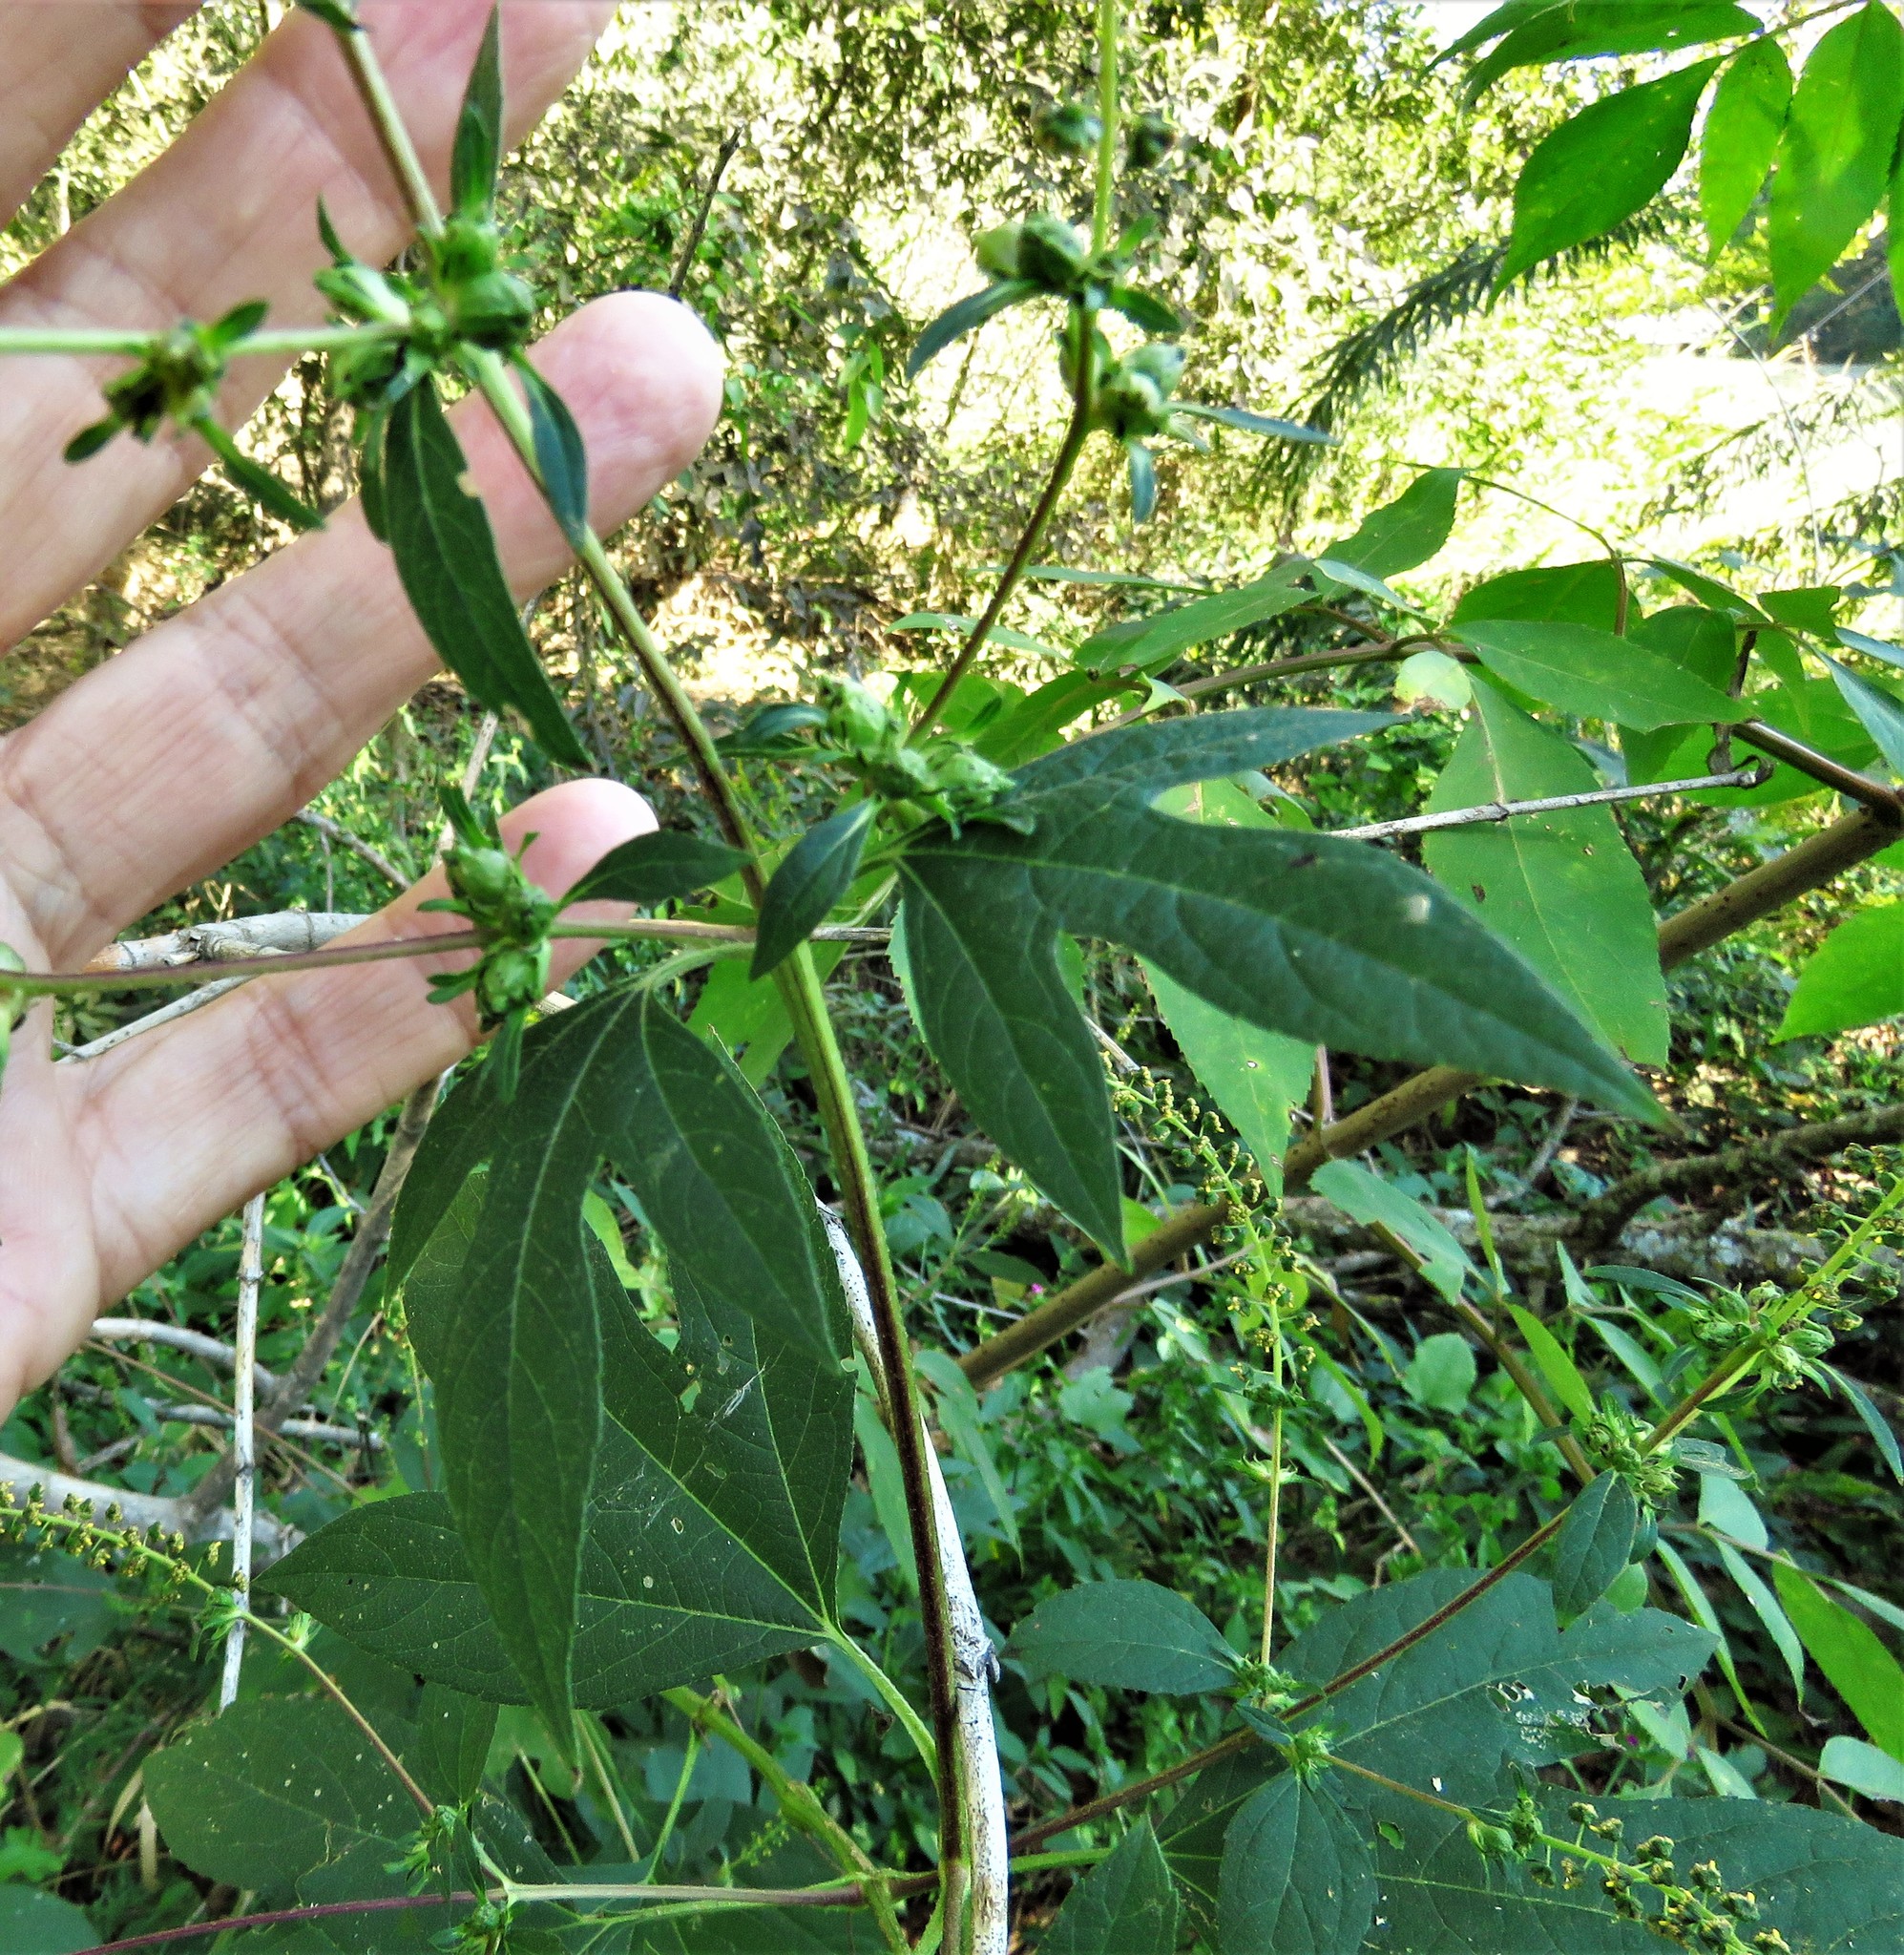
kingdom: Plantae
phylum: Tracheophyta
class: Magnoliopsida
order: Asterales
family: Asteraceae
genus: Ambrosia
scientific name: Ambrosia trifida
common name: Giant ragweed
